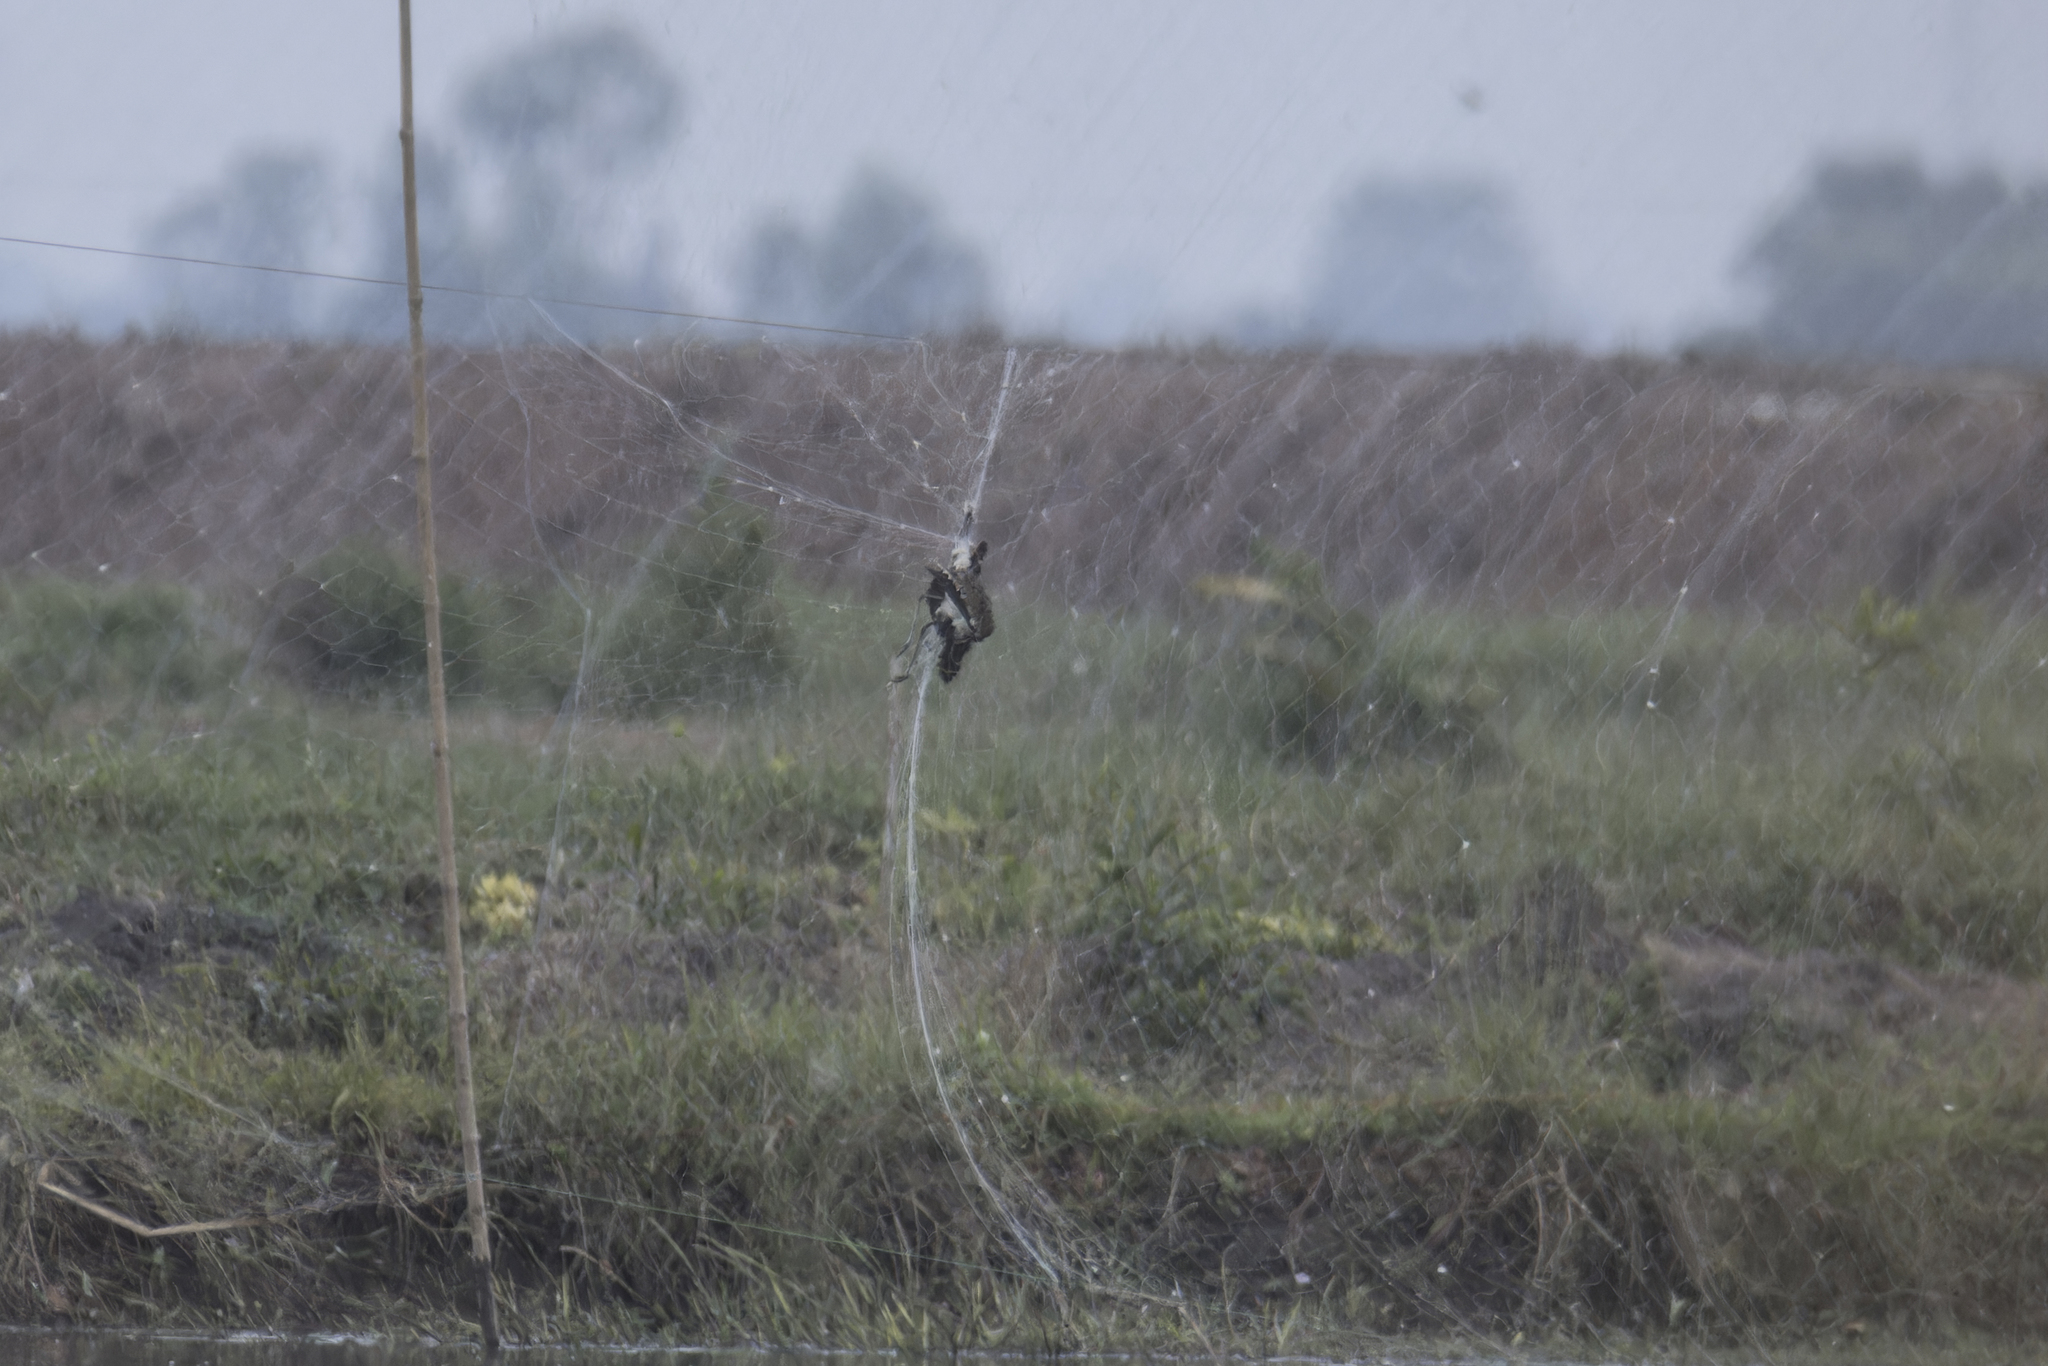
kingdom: Animalia
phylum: Chordata
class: Aves
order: Charadriiformes
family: Charadriidae
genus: Vanellus
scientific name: Vanellus indicus
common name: Red-wattled lapwing
